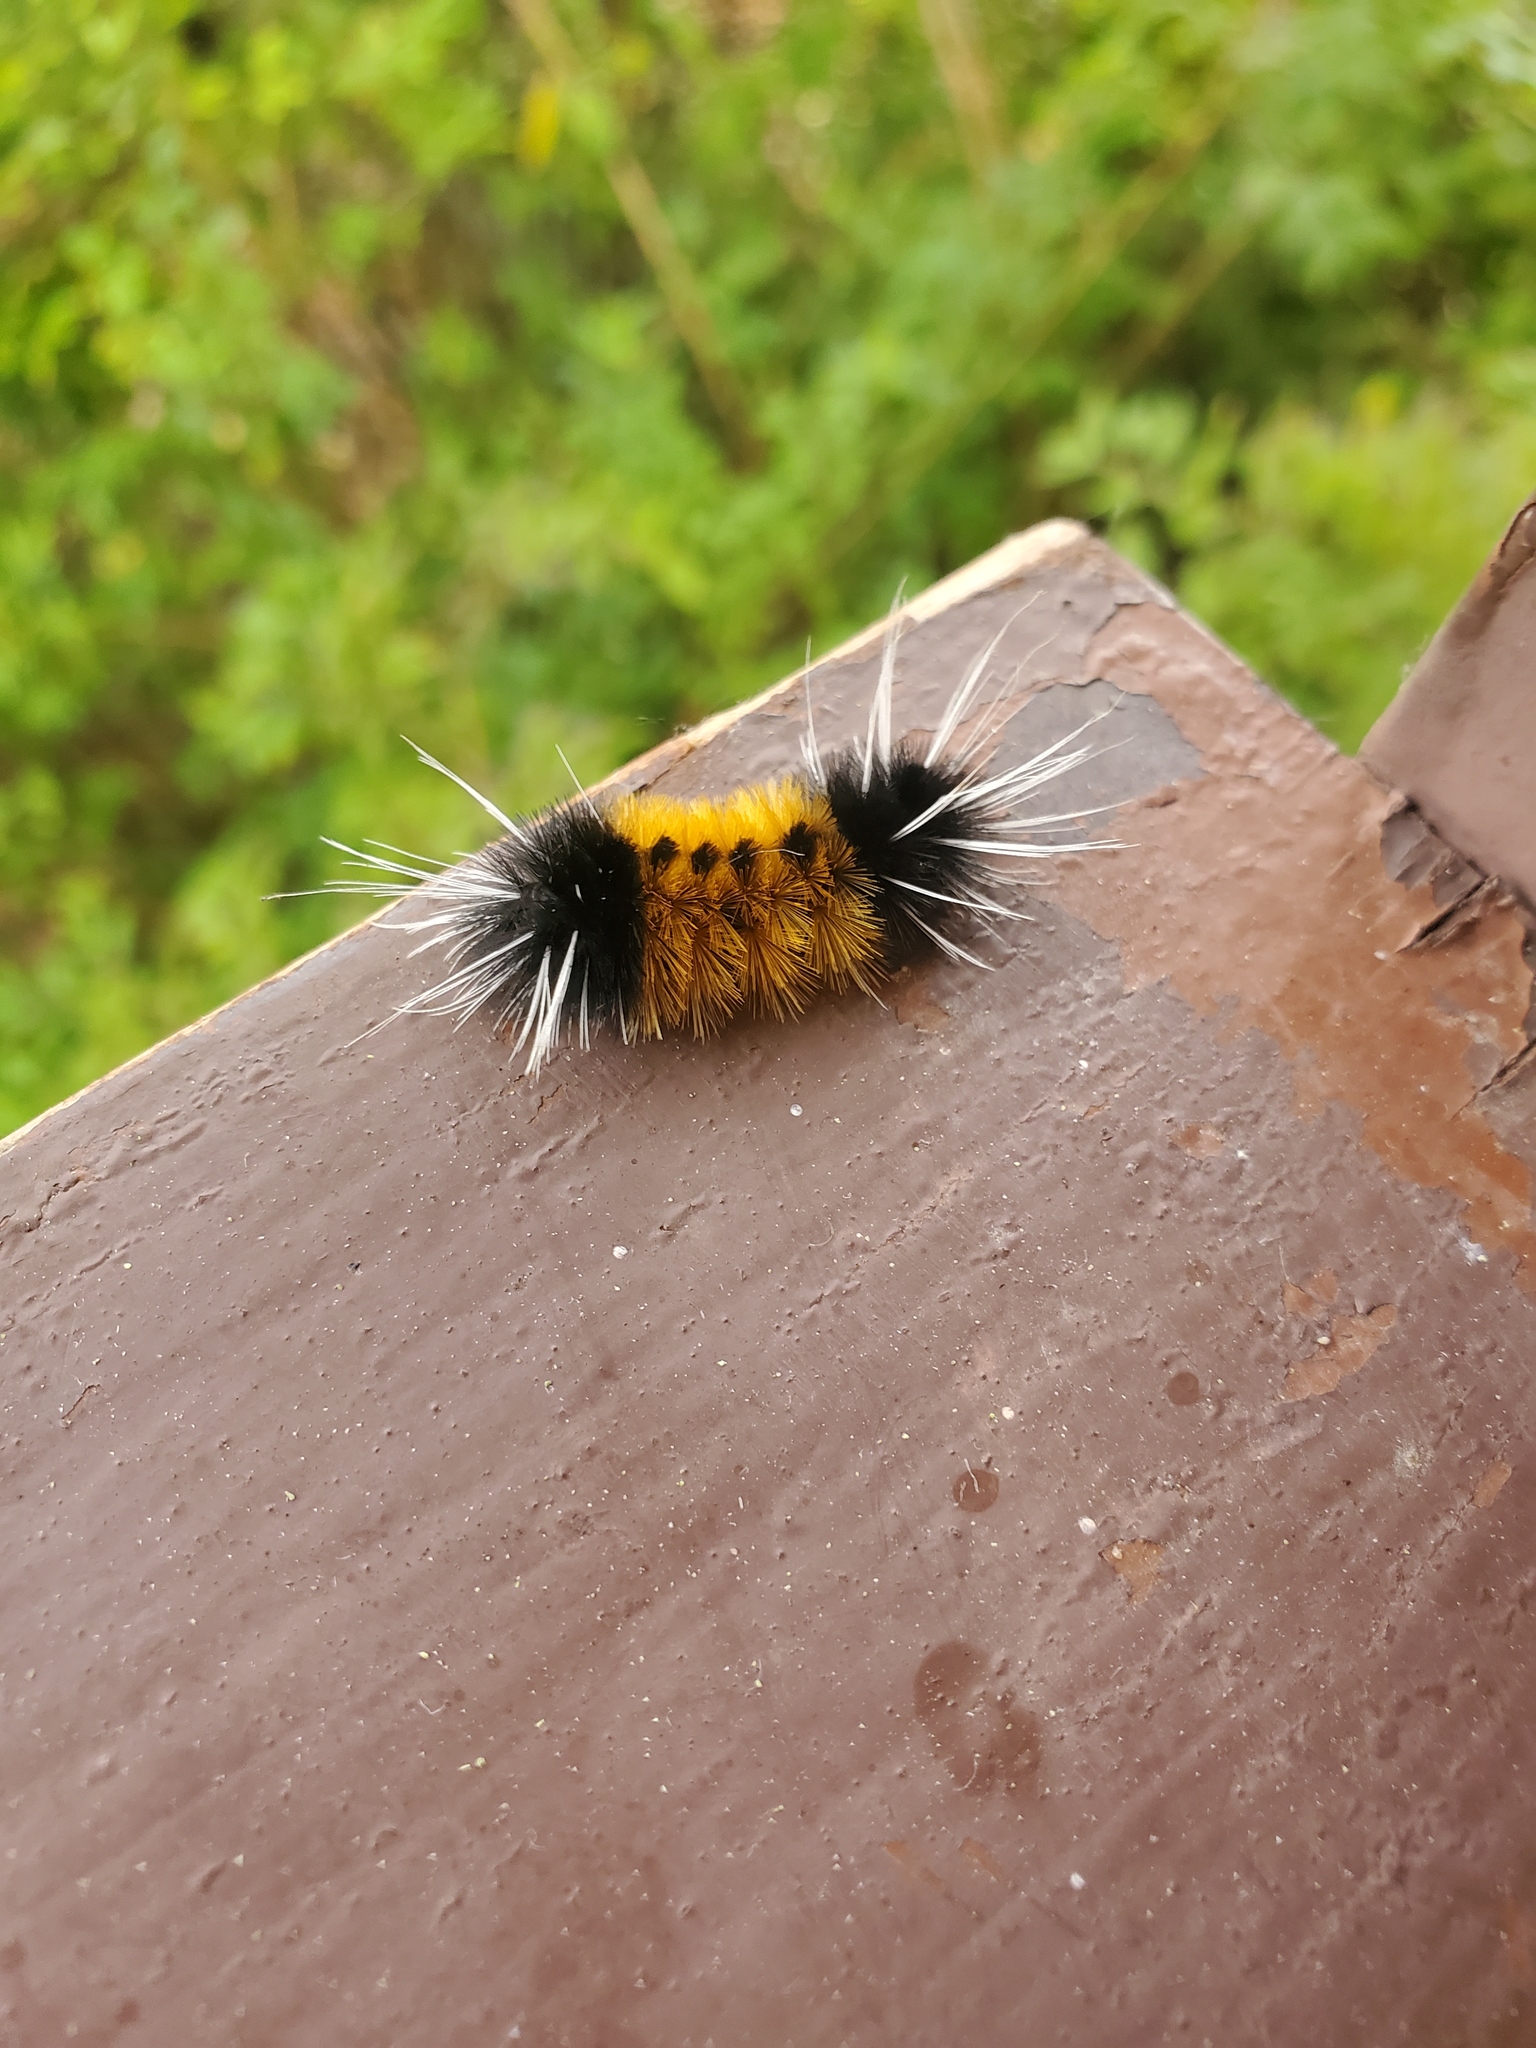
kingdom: Animalia
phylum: Arthropoda
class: Insecta
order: Lepidoptera
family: Erebidae
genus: Lophocampa
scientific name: Lophocampa maculata
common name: Spotted tussock moth
